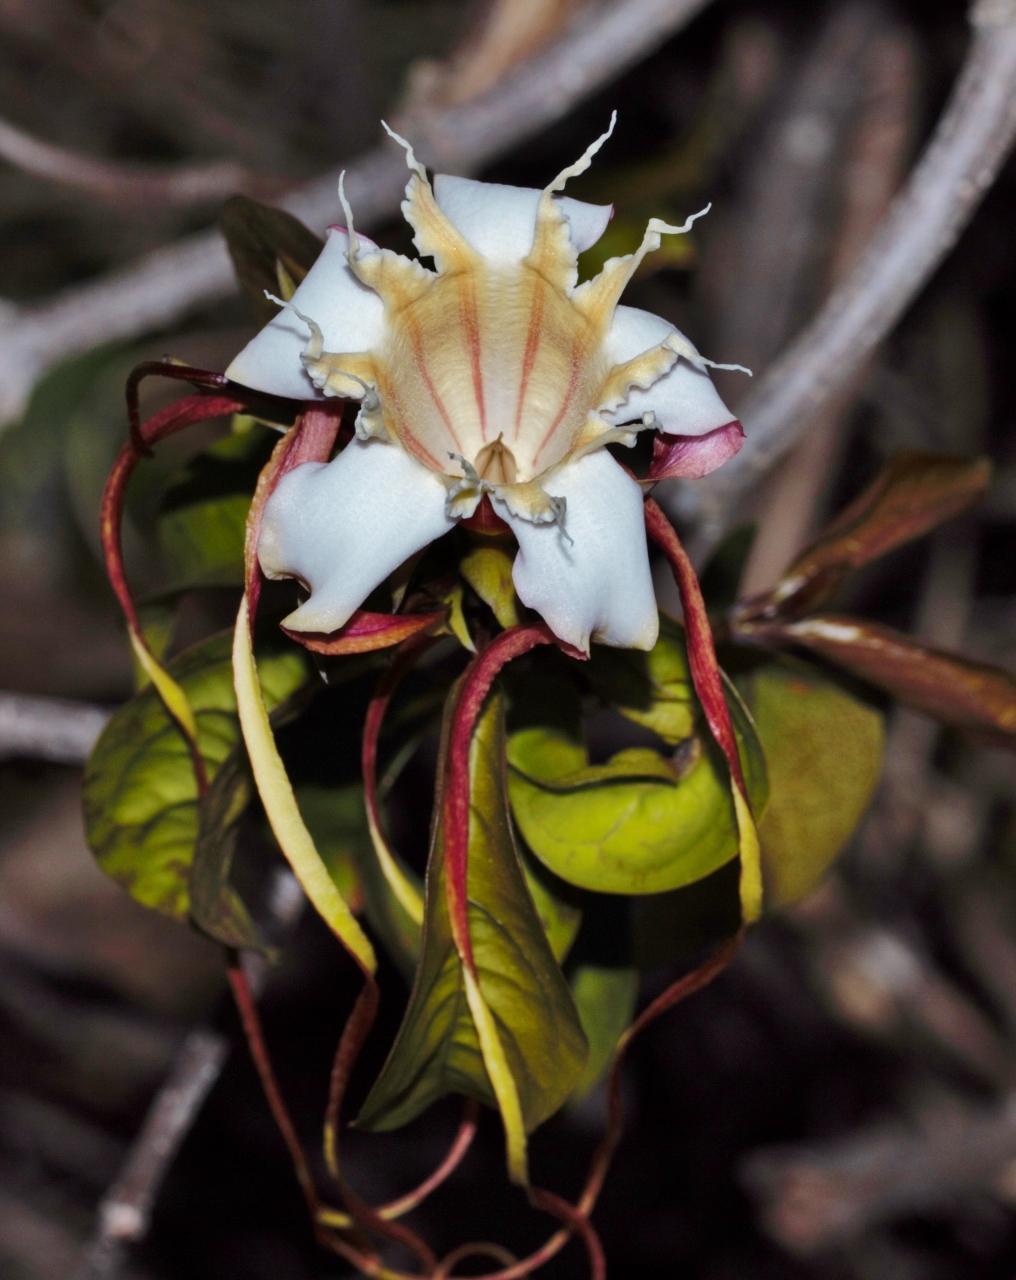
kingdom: Plantae
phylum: Tracheophyta
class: Magnoliopsida
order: Gentianales
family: Apocynaceae
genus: Strophanthus
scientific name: Strophanthus petersianus
